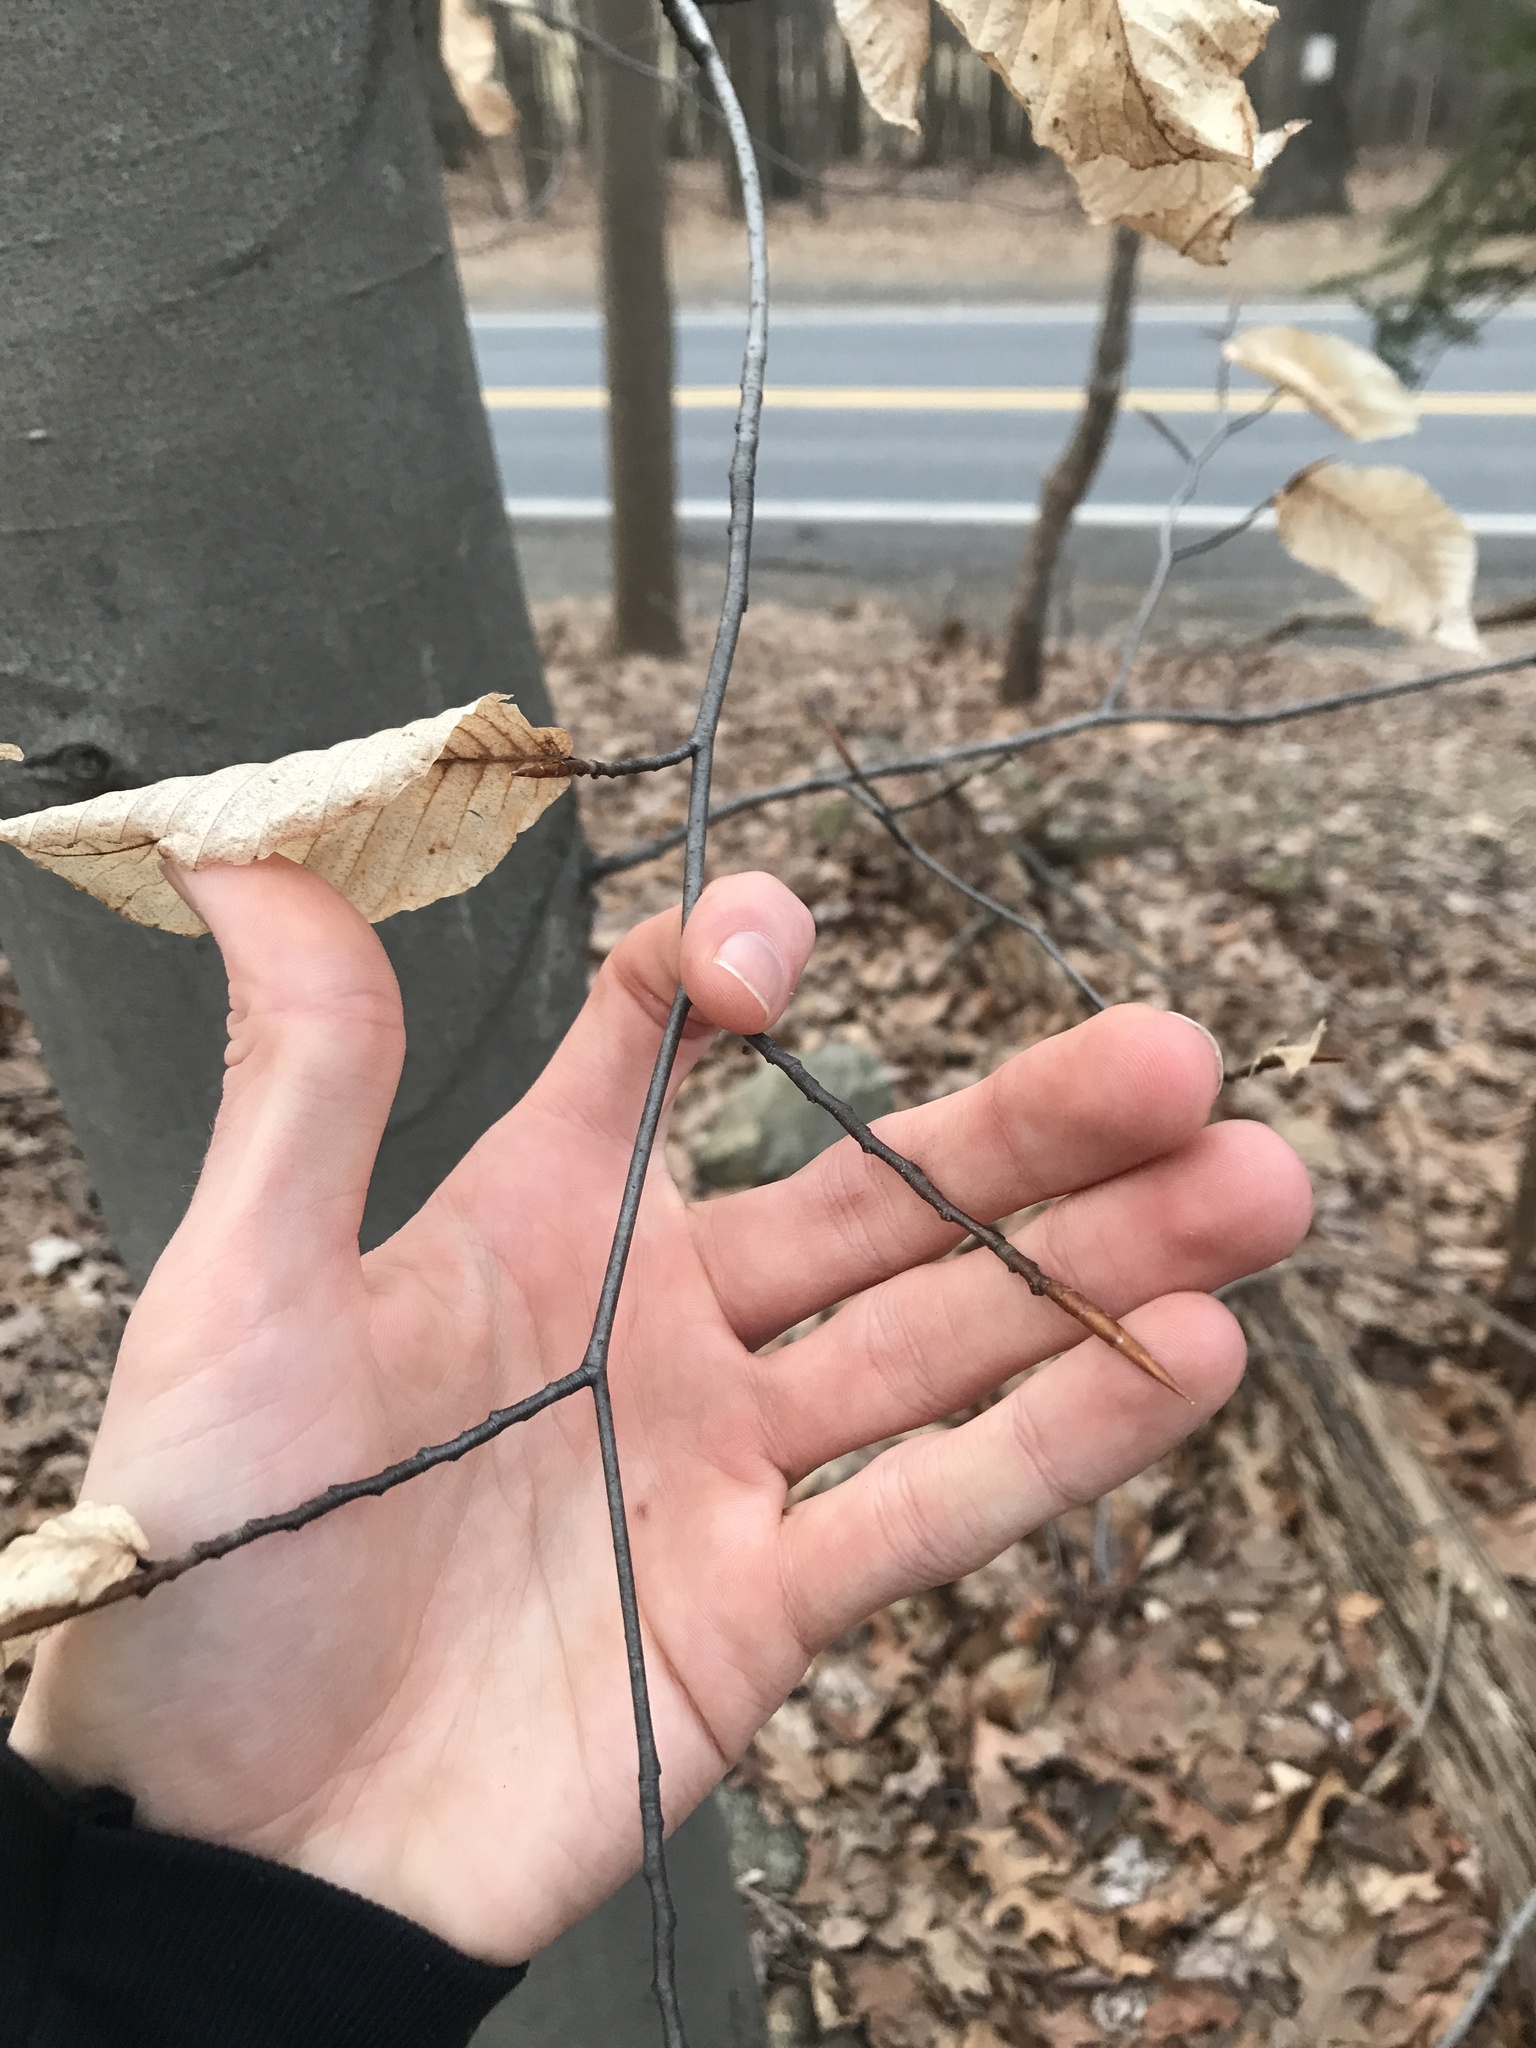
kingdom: Plantae
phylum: Tracheophyta
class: Magnoliopsida
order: Fagales
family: Fagaceae
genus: Fagus
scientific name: Fagus grandifolia
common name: American beech
